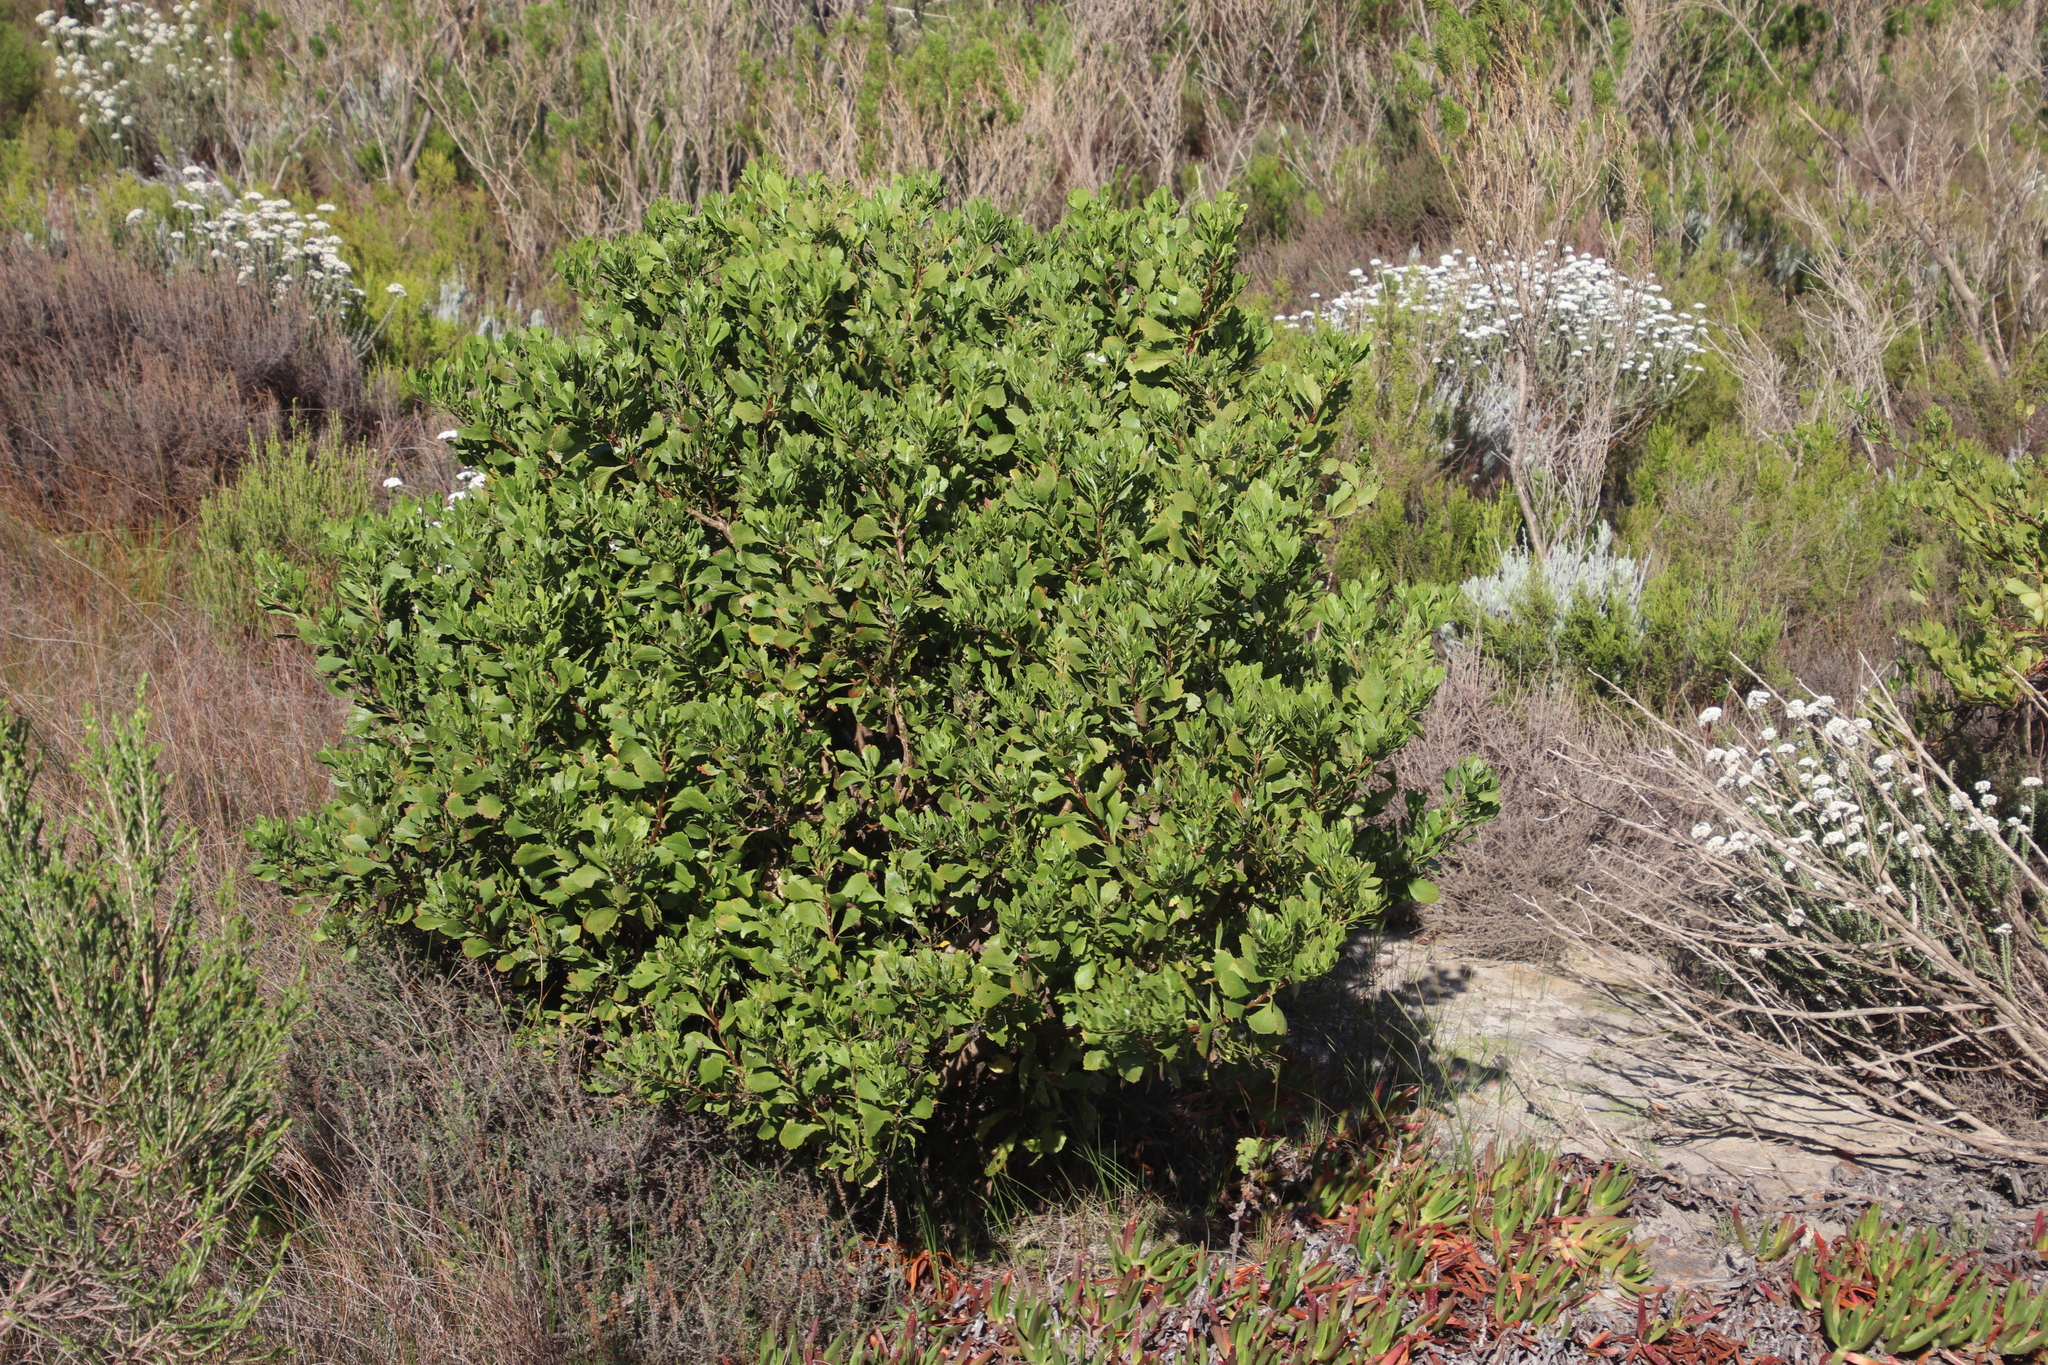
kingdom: Plantae
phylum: Tracheophyta
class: Magnoliopsida
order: Asterales
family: Asteraceae
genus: Osteospermum
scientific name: Osteospermum moniliferum
